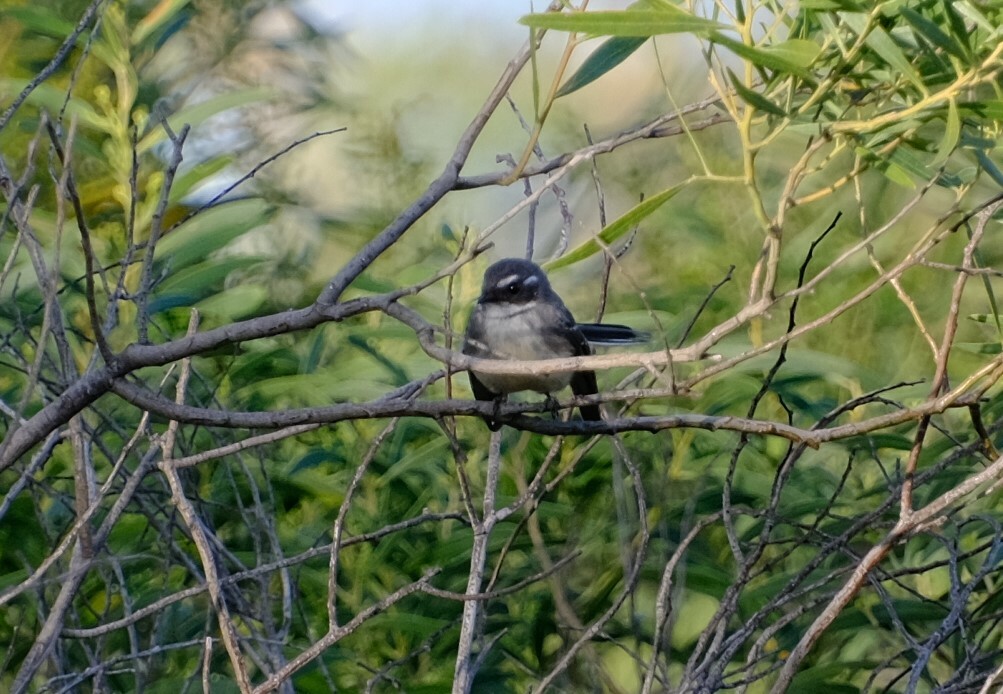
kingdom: Animalia
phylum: Chordata
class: Aves
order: Passeriformes
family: Rhipiduridae
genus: Rhipidura
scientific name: Rhipidura albiscapa
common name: Grey fantail
